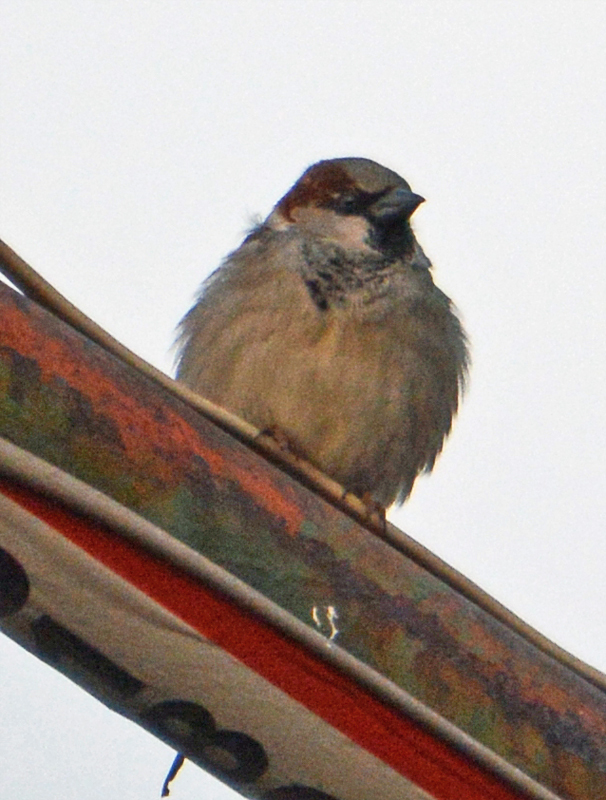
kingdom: Animalia
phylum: Chordata
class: Aves
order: Passeriformes
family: Passeridae
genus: Passer
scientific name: Passer domesticus
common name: House sparrow
